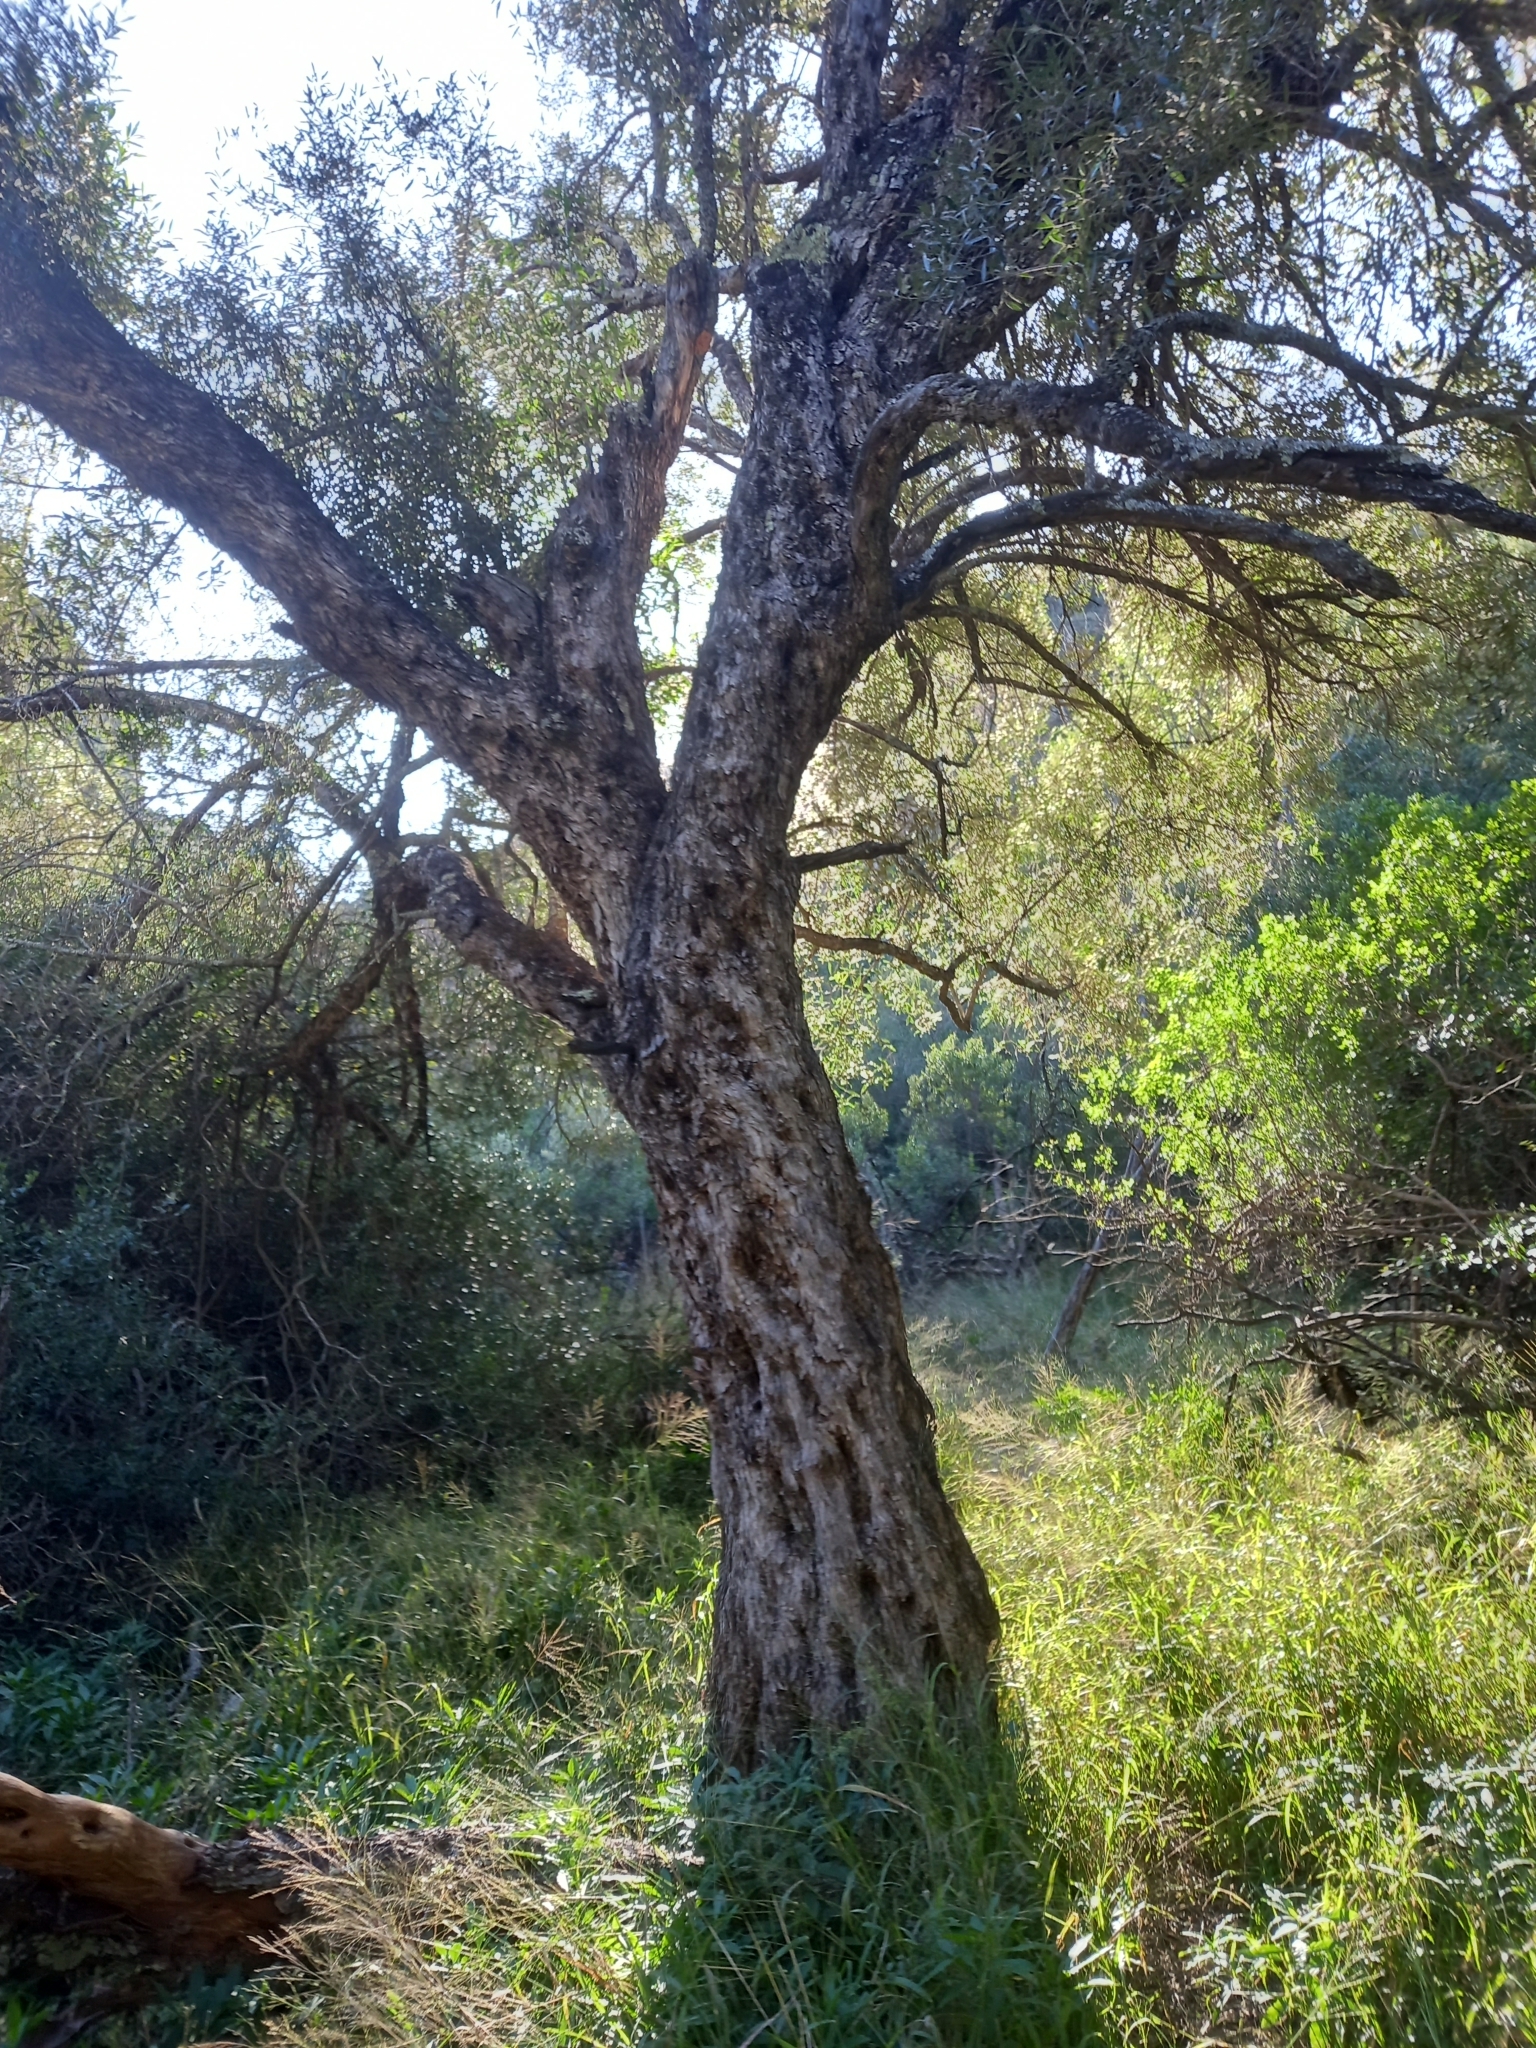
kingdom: Plantae
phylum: Tracheophyta
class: Magnoliopsida
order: Lamiales
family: Oleaceae
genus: Olea
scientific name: Olea europaea
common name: Olive
